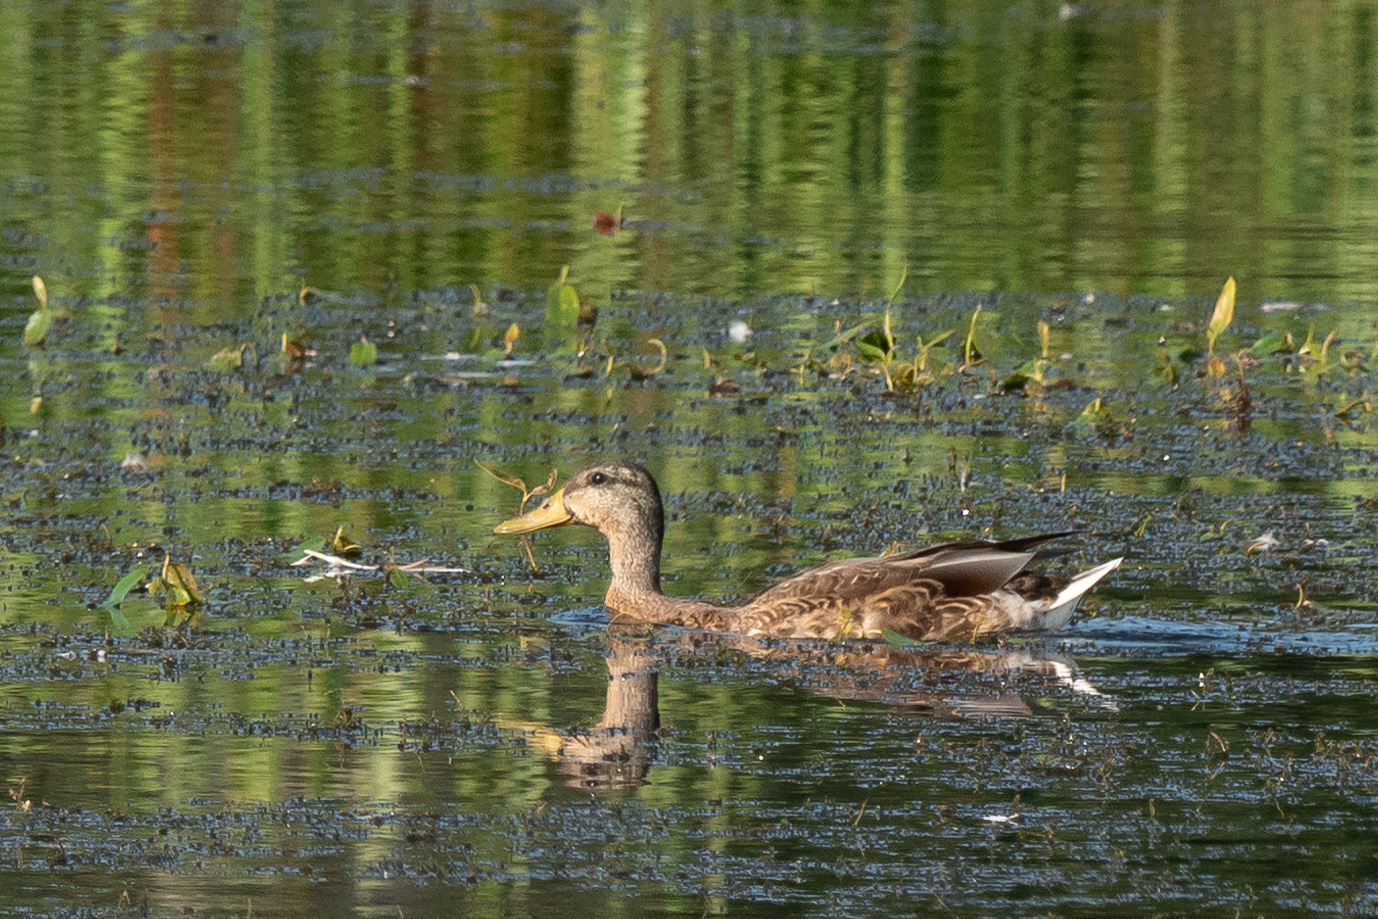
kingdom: Animalia
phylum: Chordata
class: Aves
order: Anseriformes
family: Anatidae
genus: Anas
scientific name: Anas platyrhynchos
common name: Mallard
